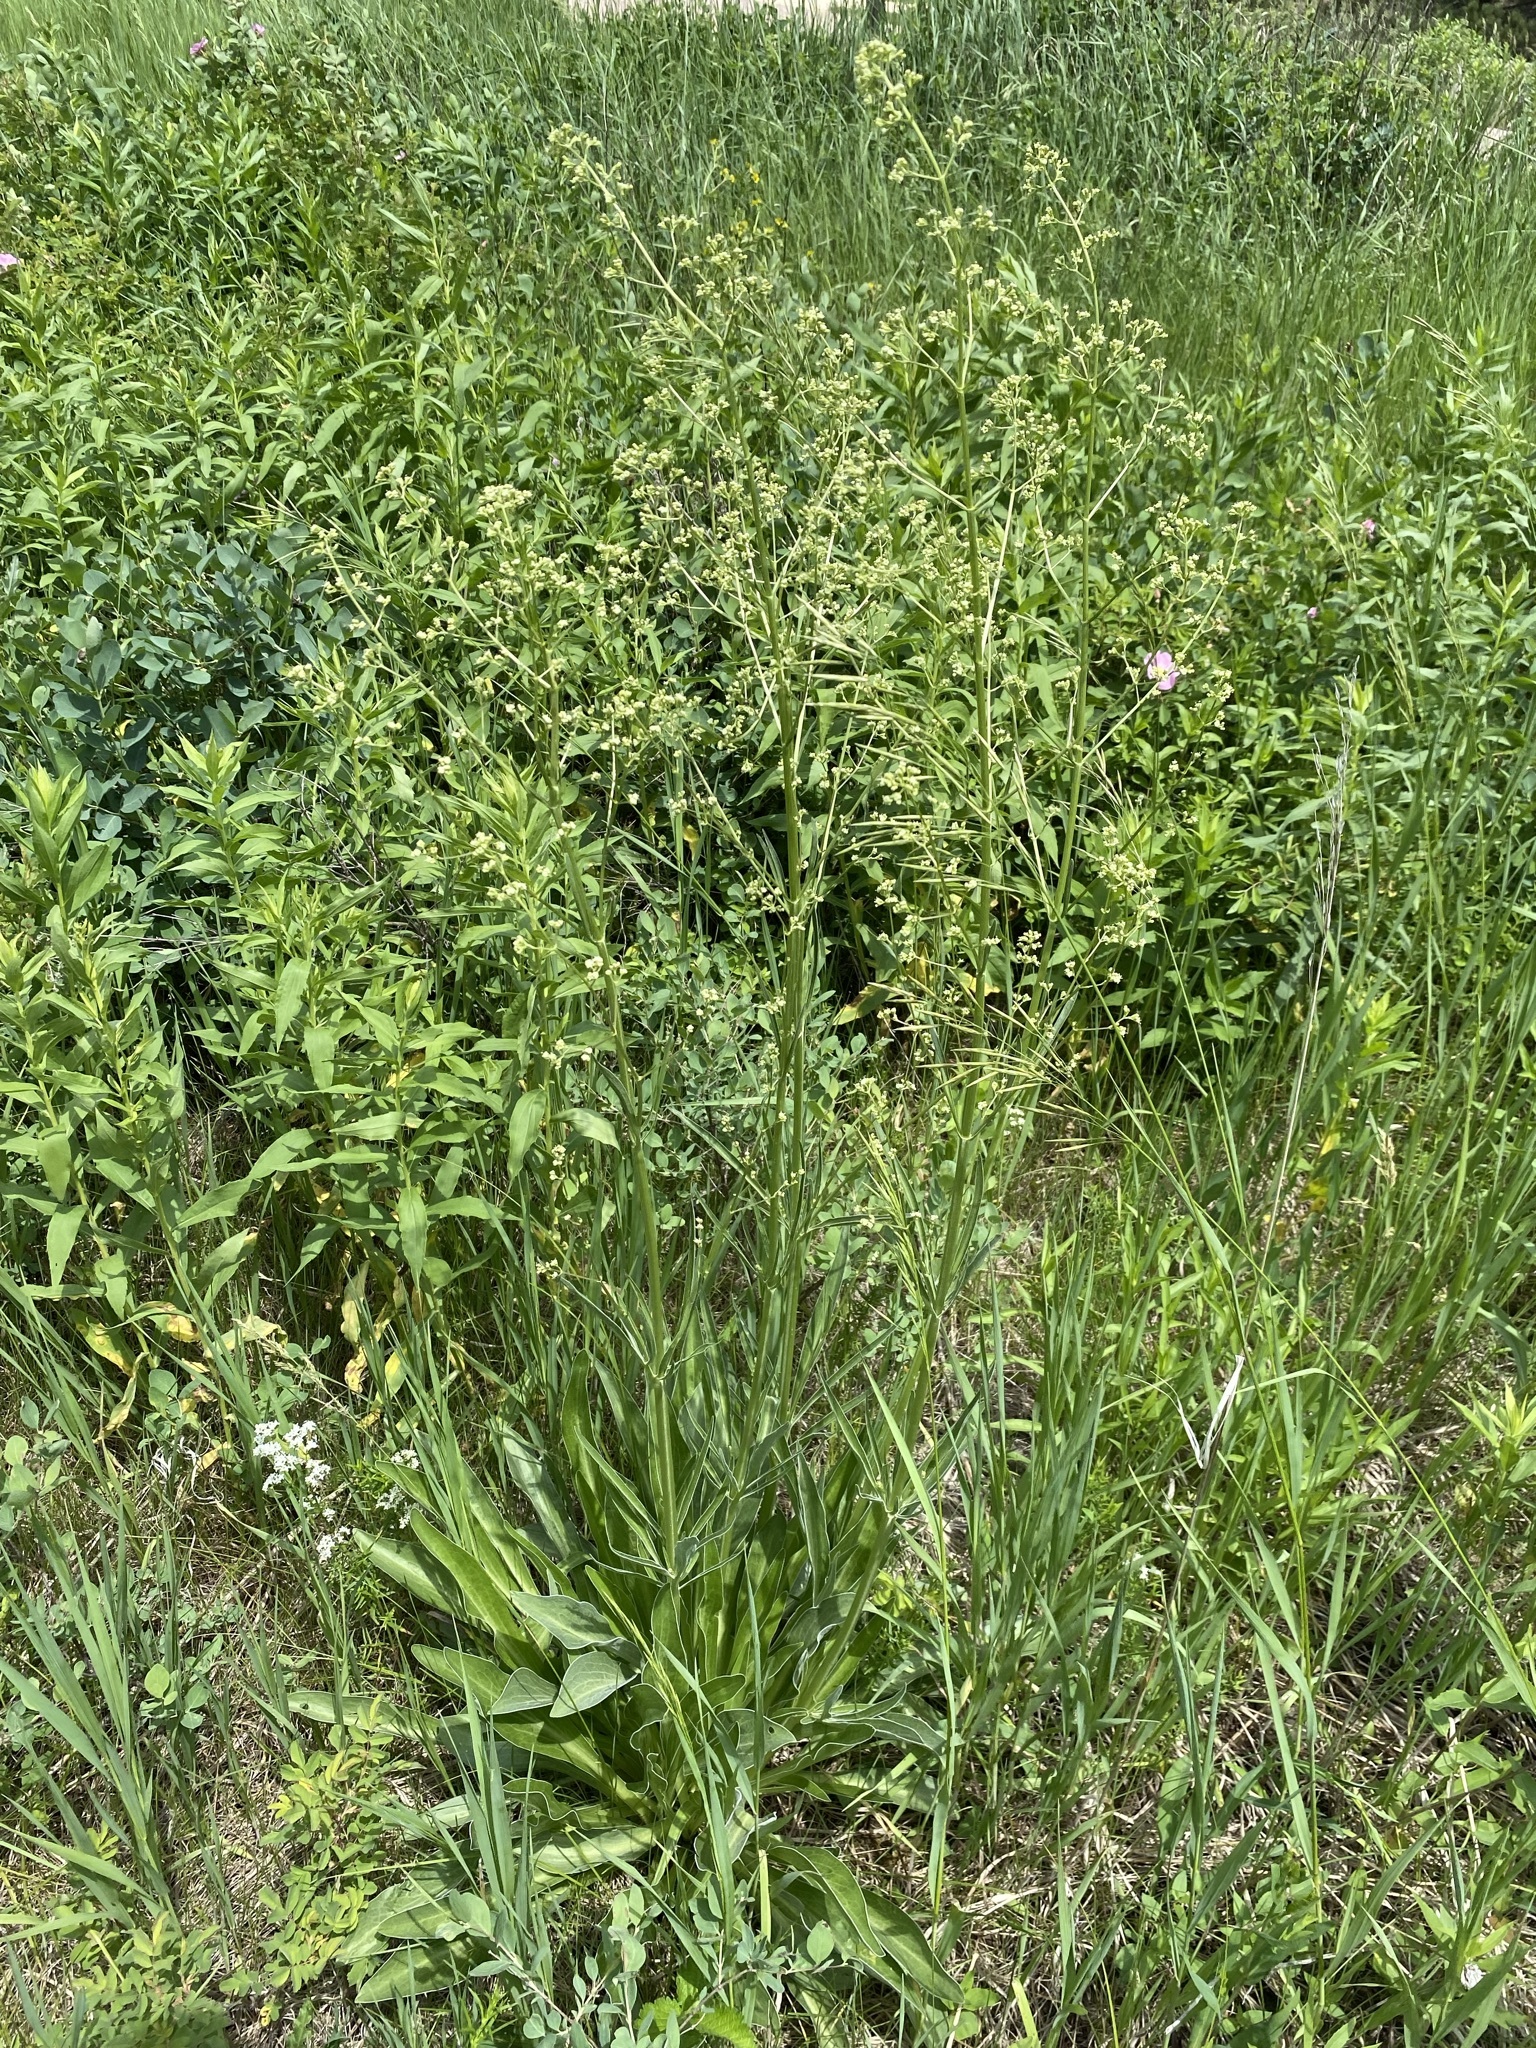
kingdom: Plantae
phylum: Tracheophyta
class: Magnoliopsida
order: Dipsacales
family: Caprifoliaceae
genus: Valeriana
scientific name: Valeriana edulis
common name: Taproot valerian
